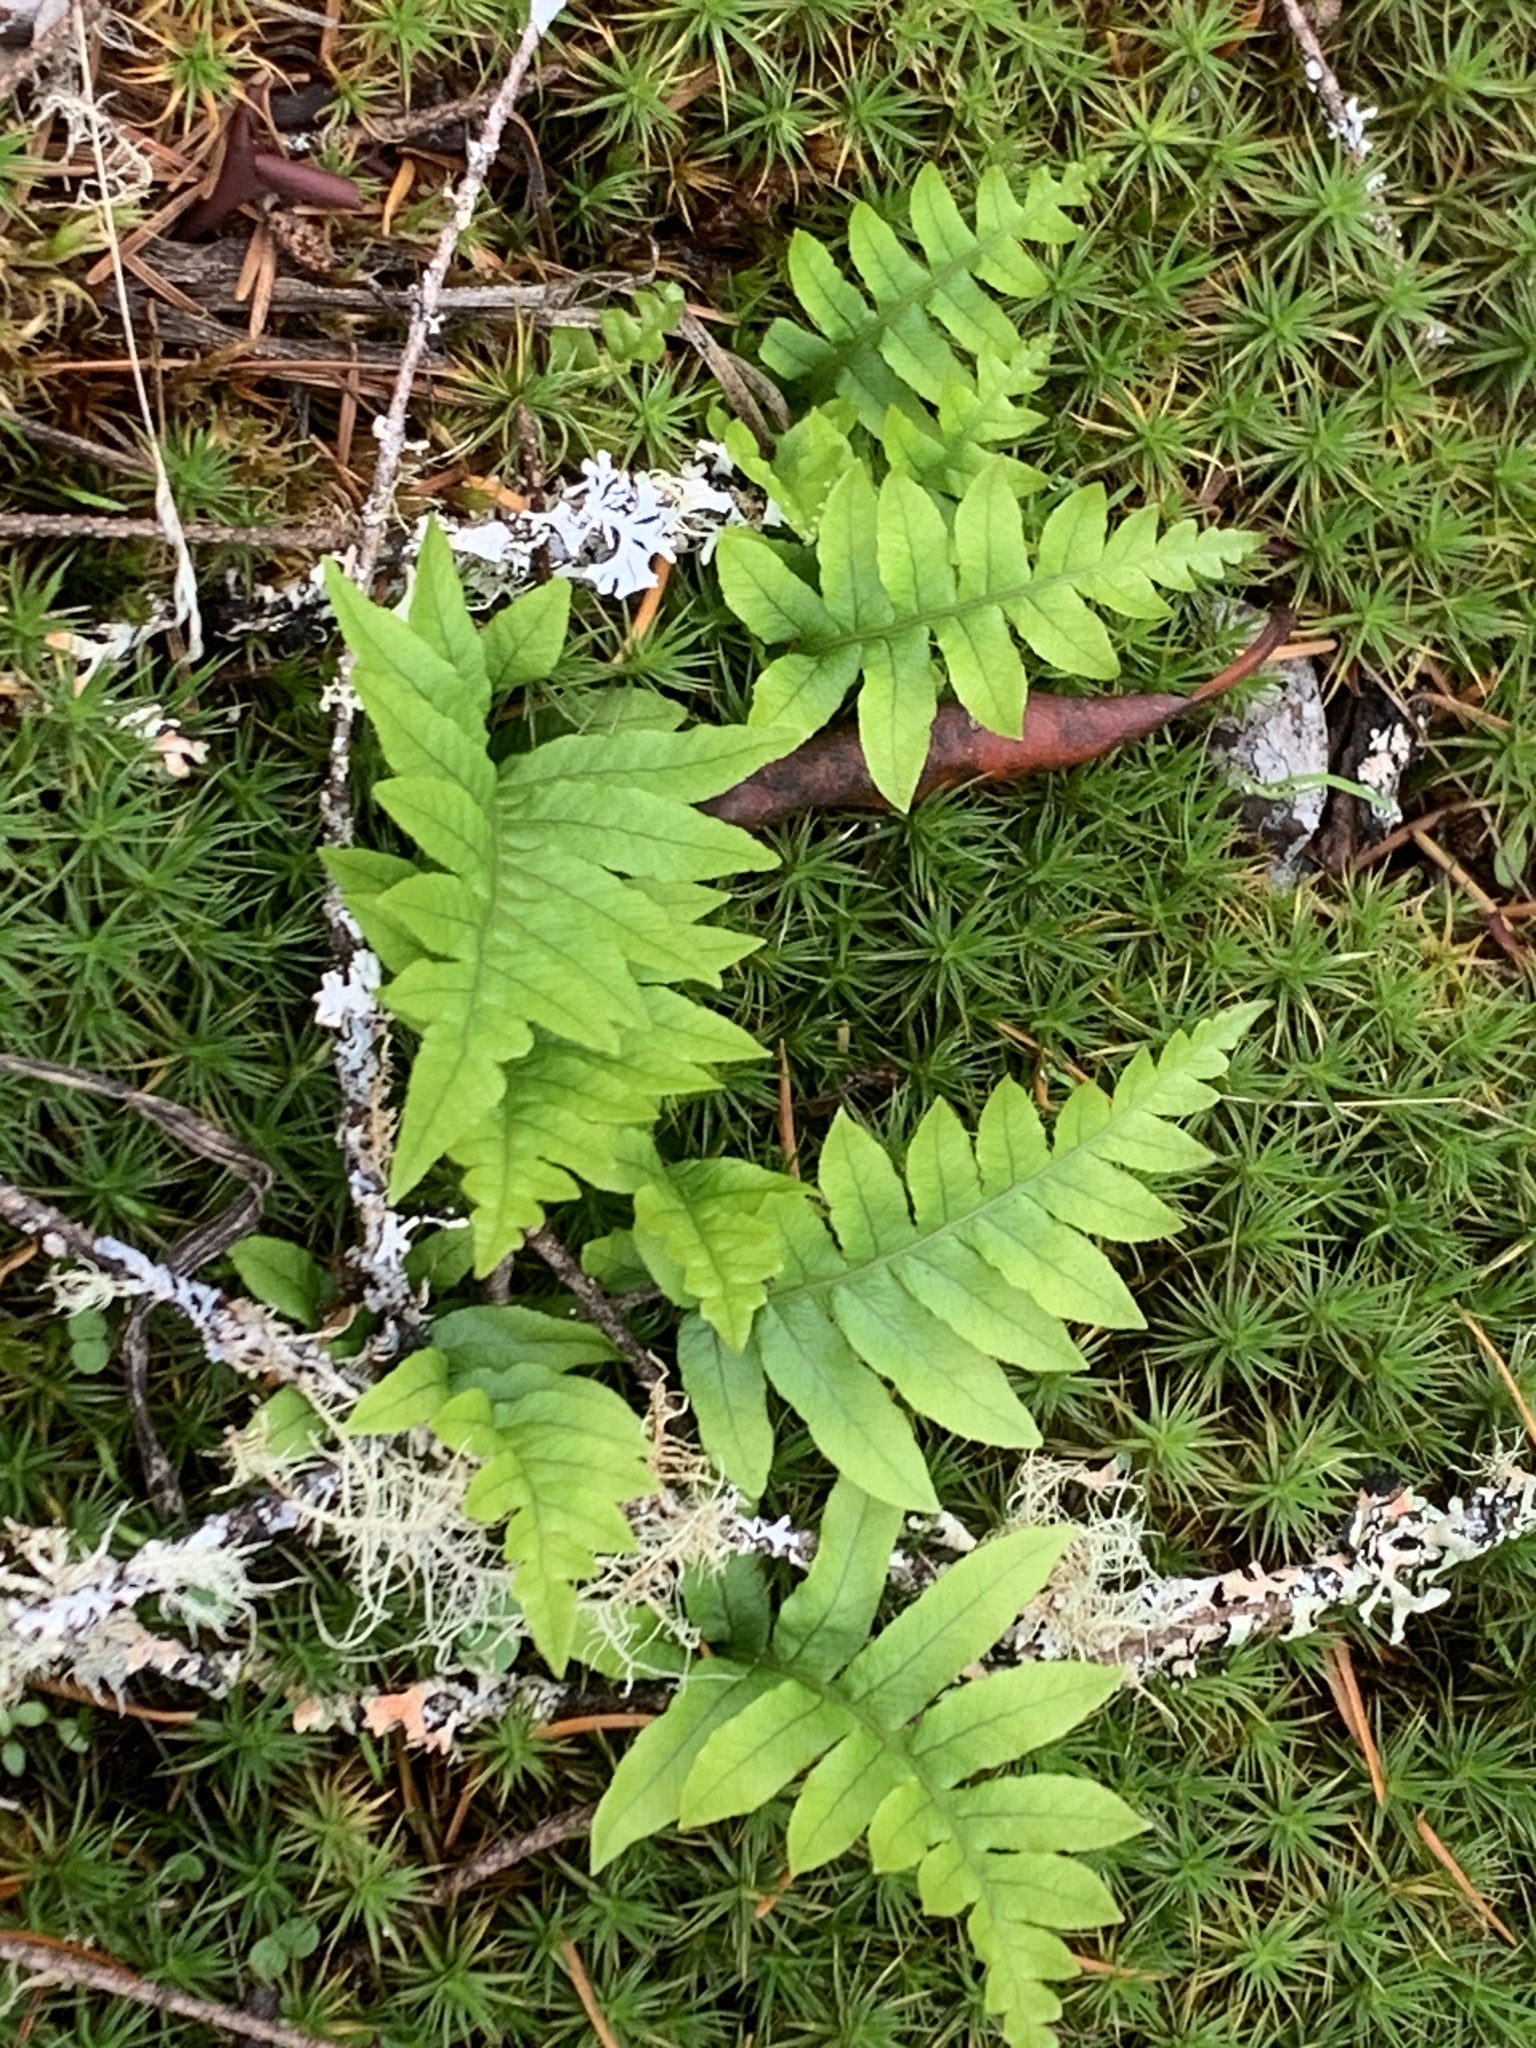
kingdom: Plantae
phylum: Tracheophyta
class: Polypodiopsida
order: Polypodiales
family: Polypodiaceae
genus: Polypodium
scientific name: Polypodium glycyrrhiza
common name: Licorice fern
